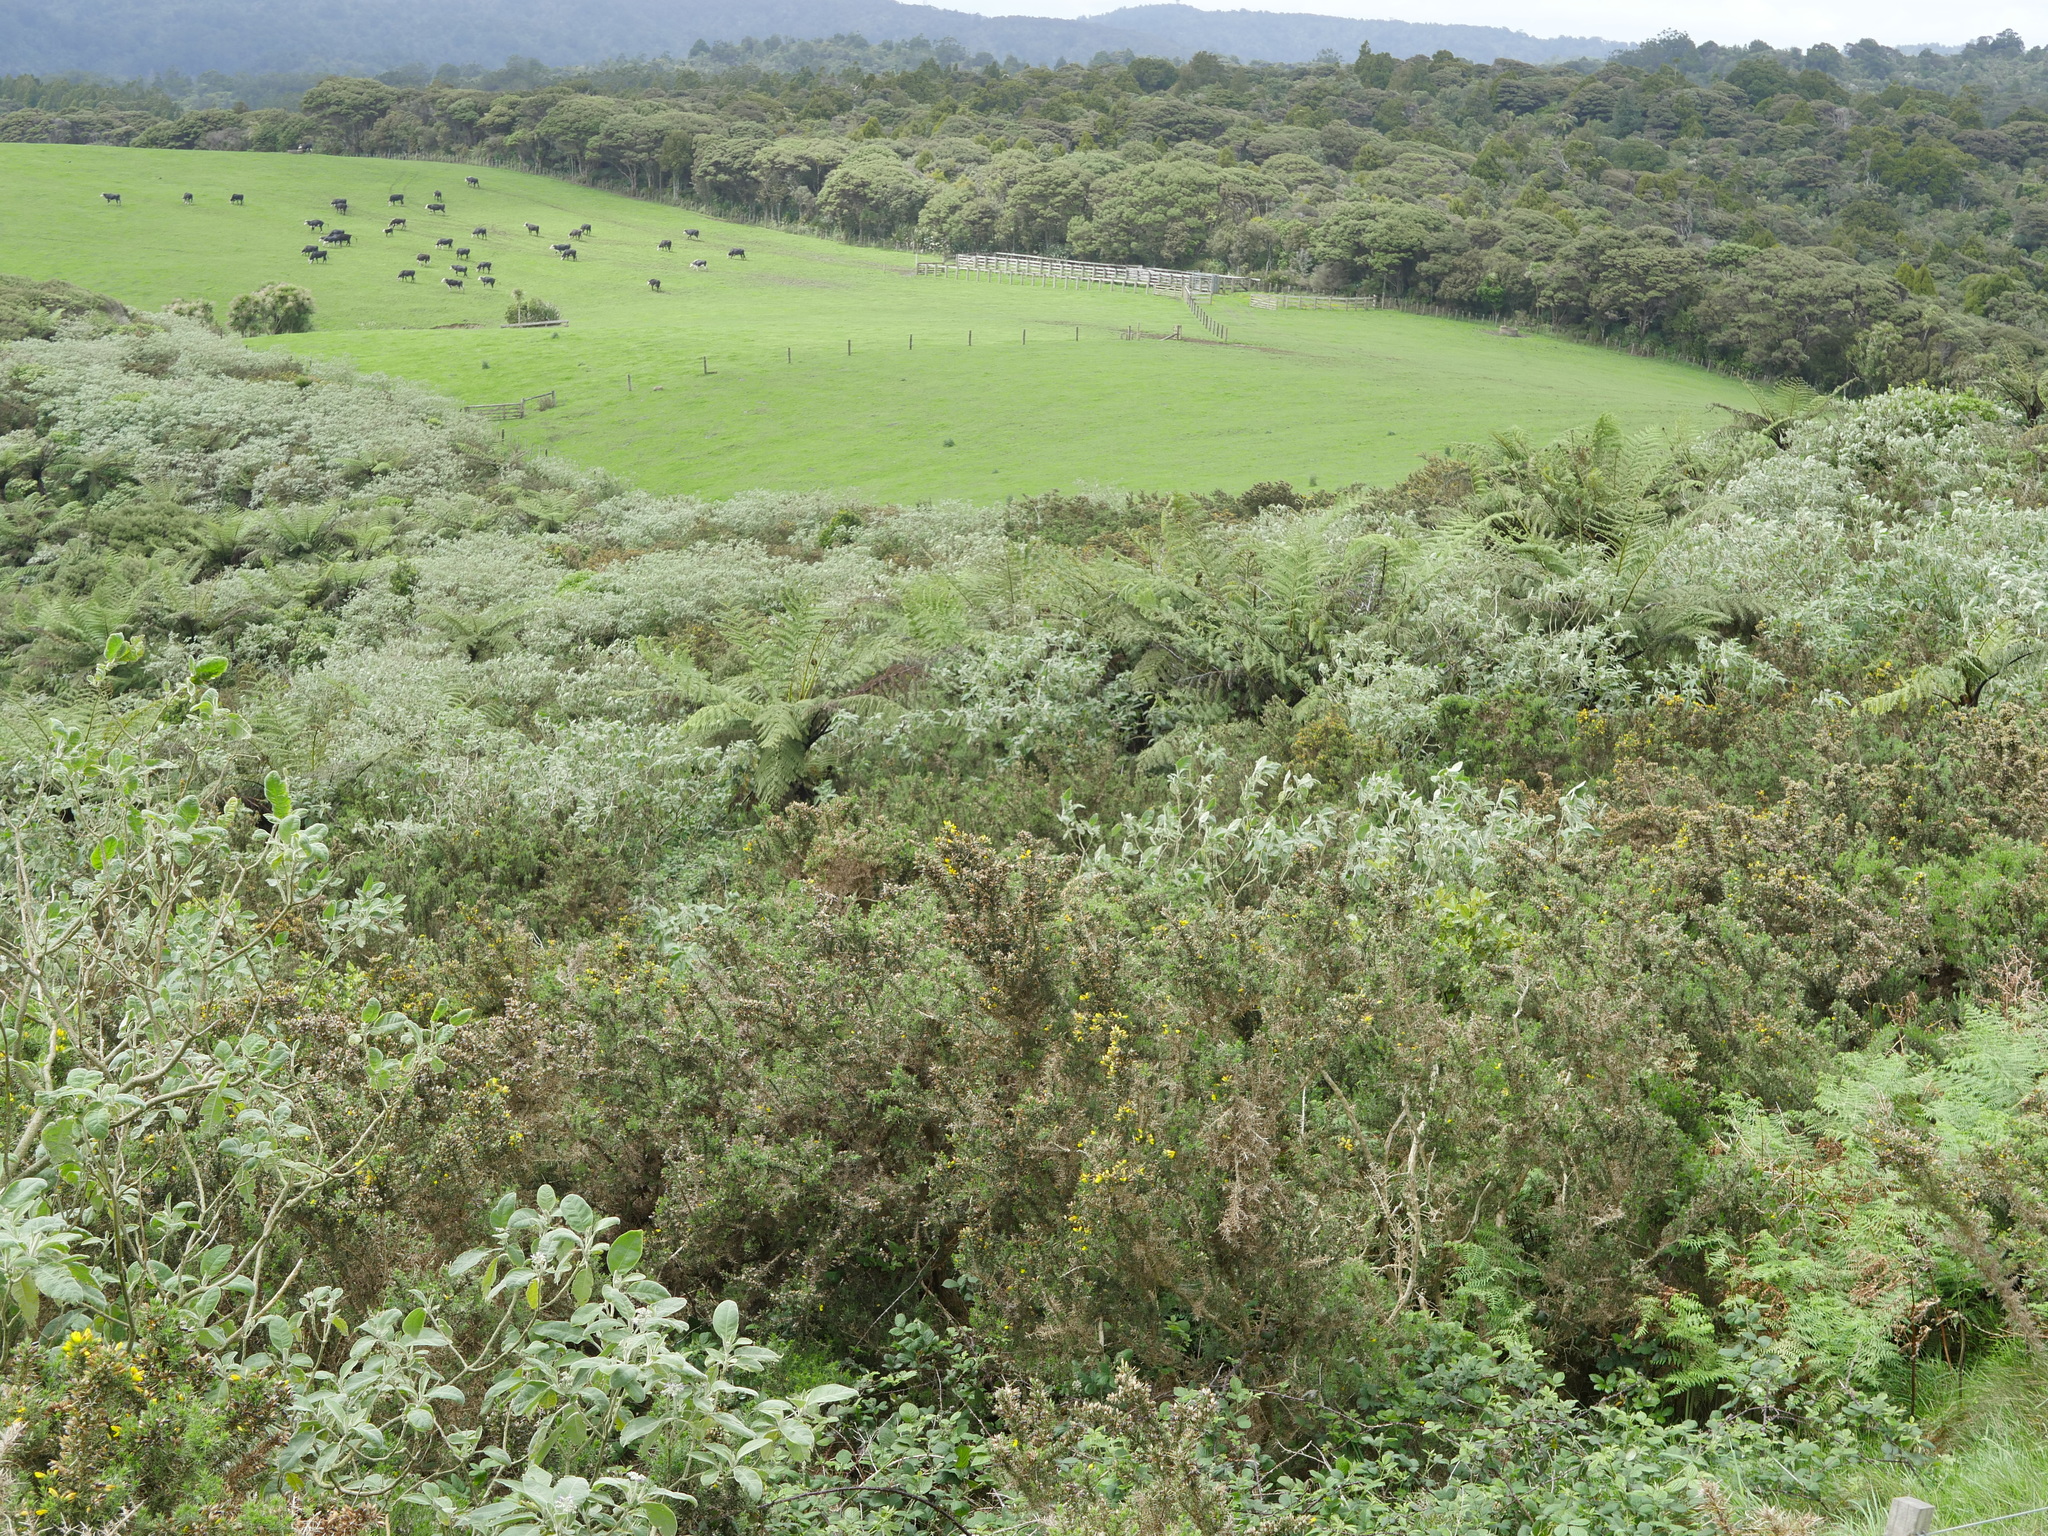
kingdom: Plantae
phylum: Tracheophyta
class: Polypodiopsida
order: Cyatheales
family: Cyatheaceae
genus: Sphaeropteris
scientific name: Sphaeropteris medullaris
